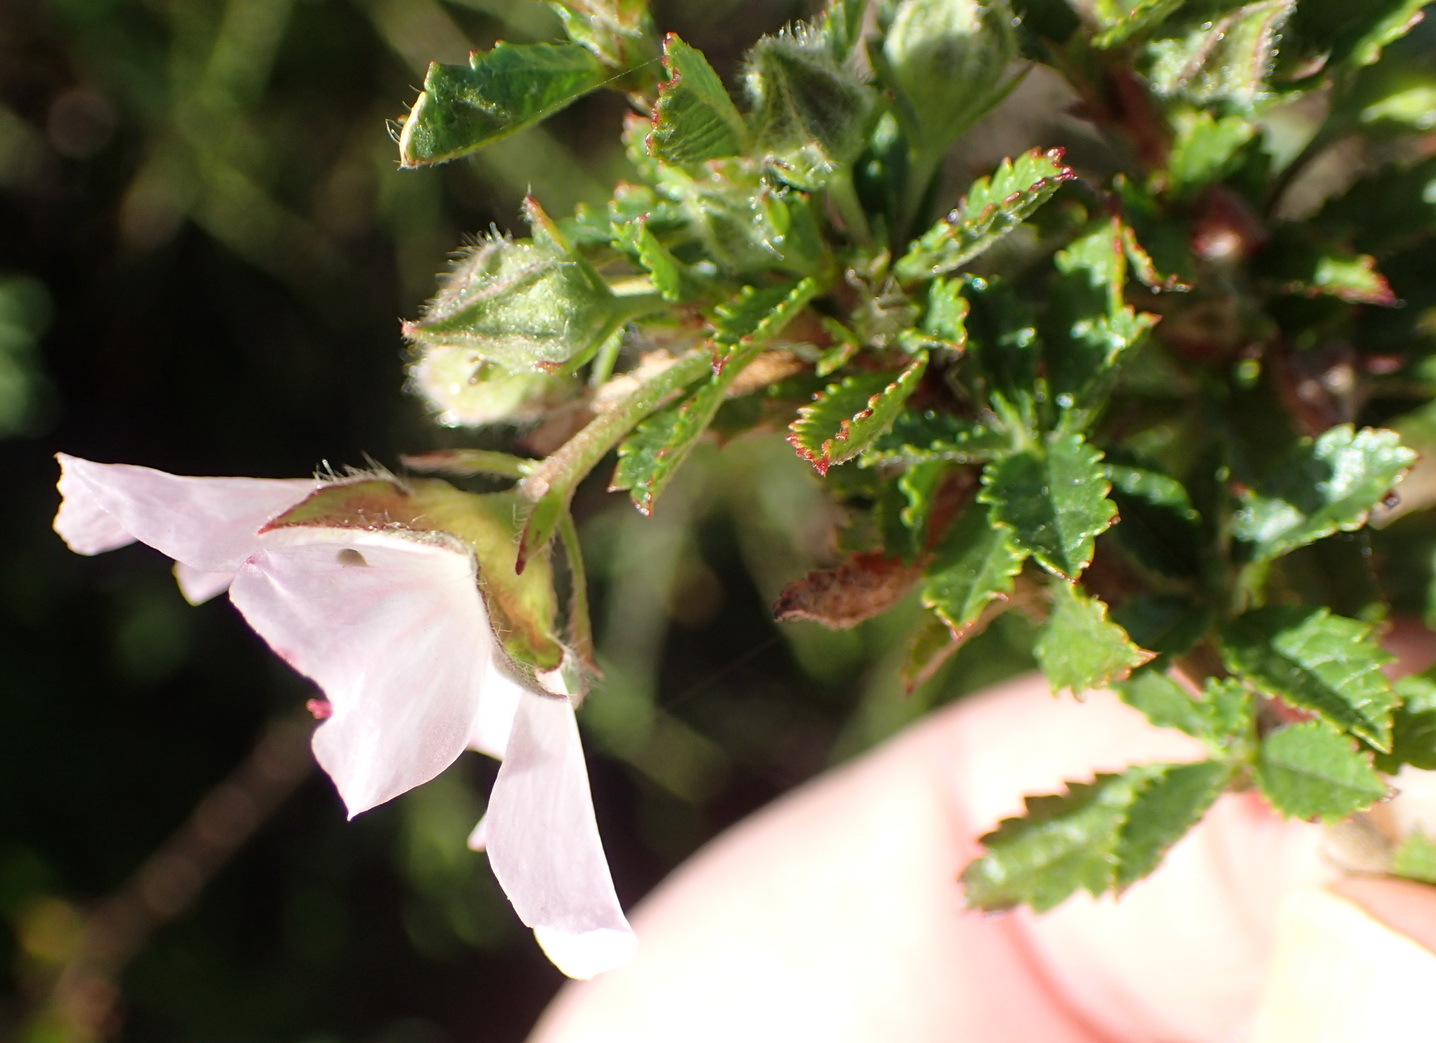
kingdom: Plantae
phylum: Tracheophyta
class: Magnoliopsida
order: Malvales
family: Malvaceae
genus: Anisodontea
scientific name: Anisodontea triloba
